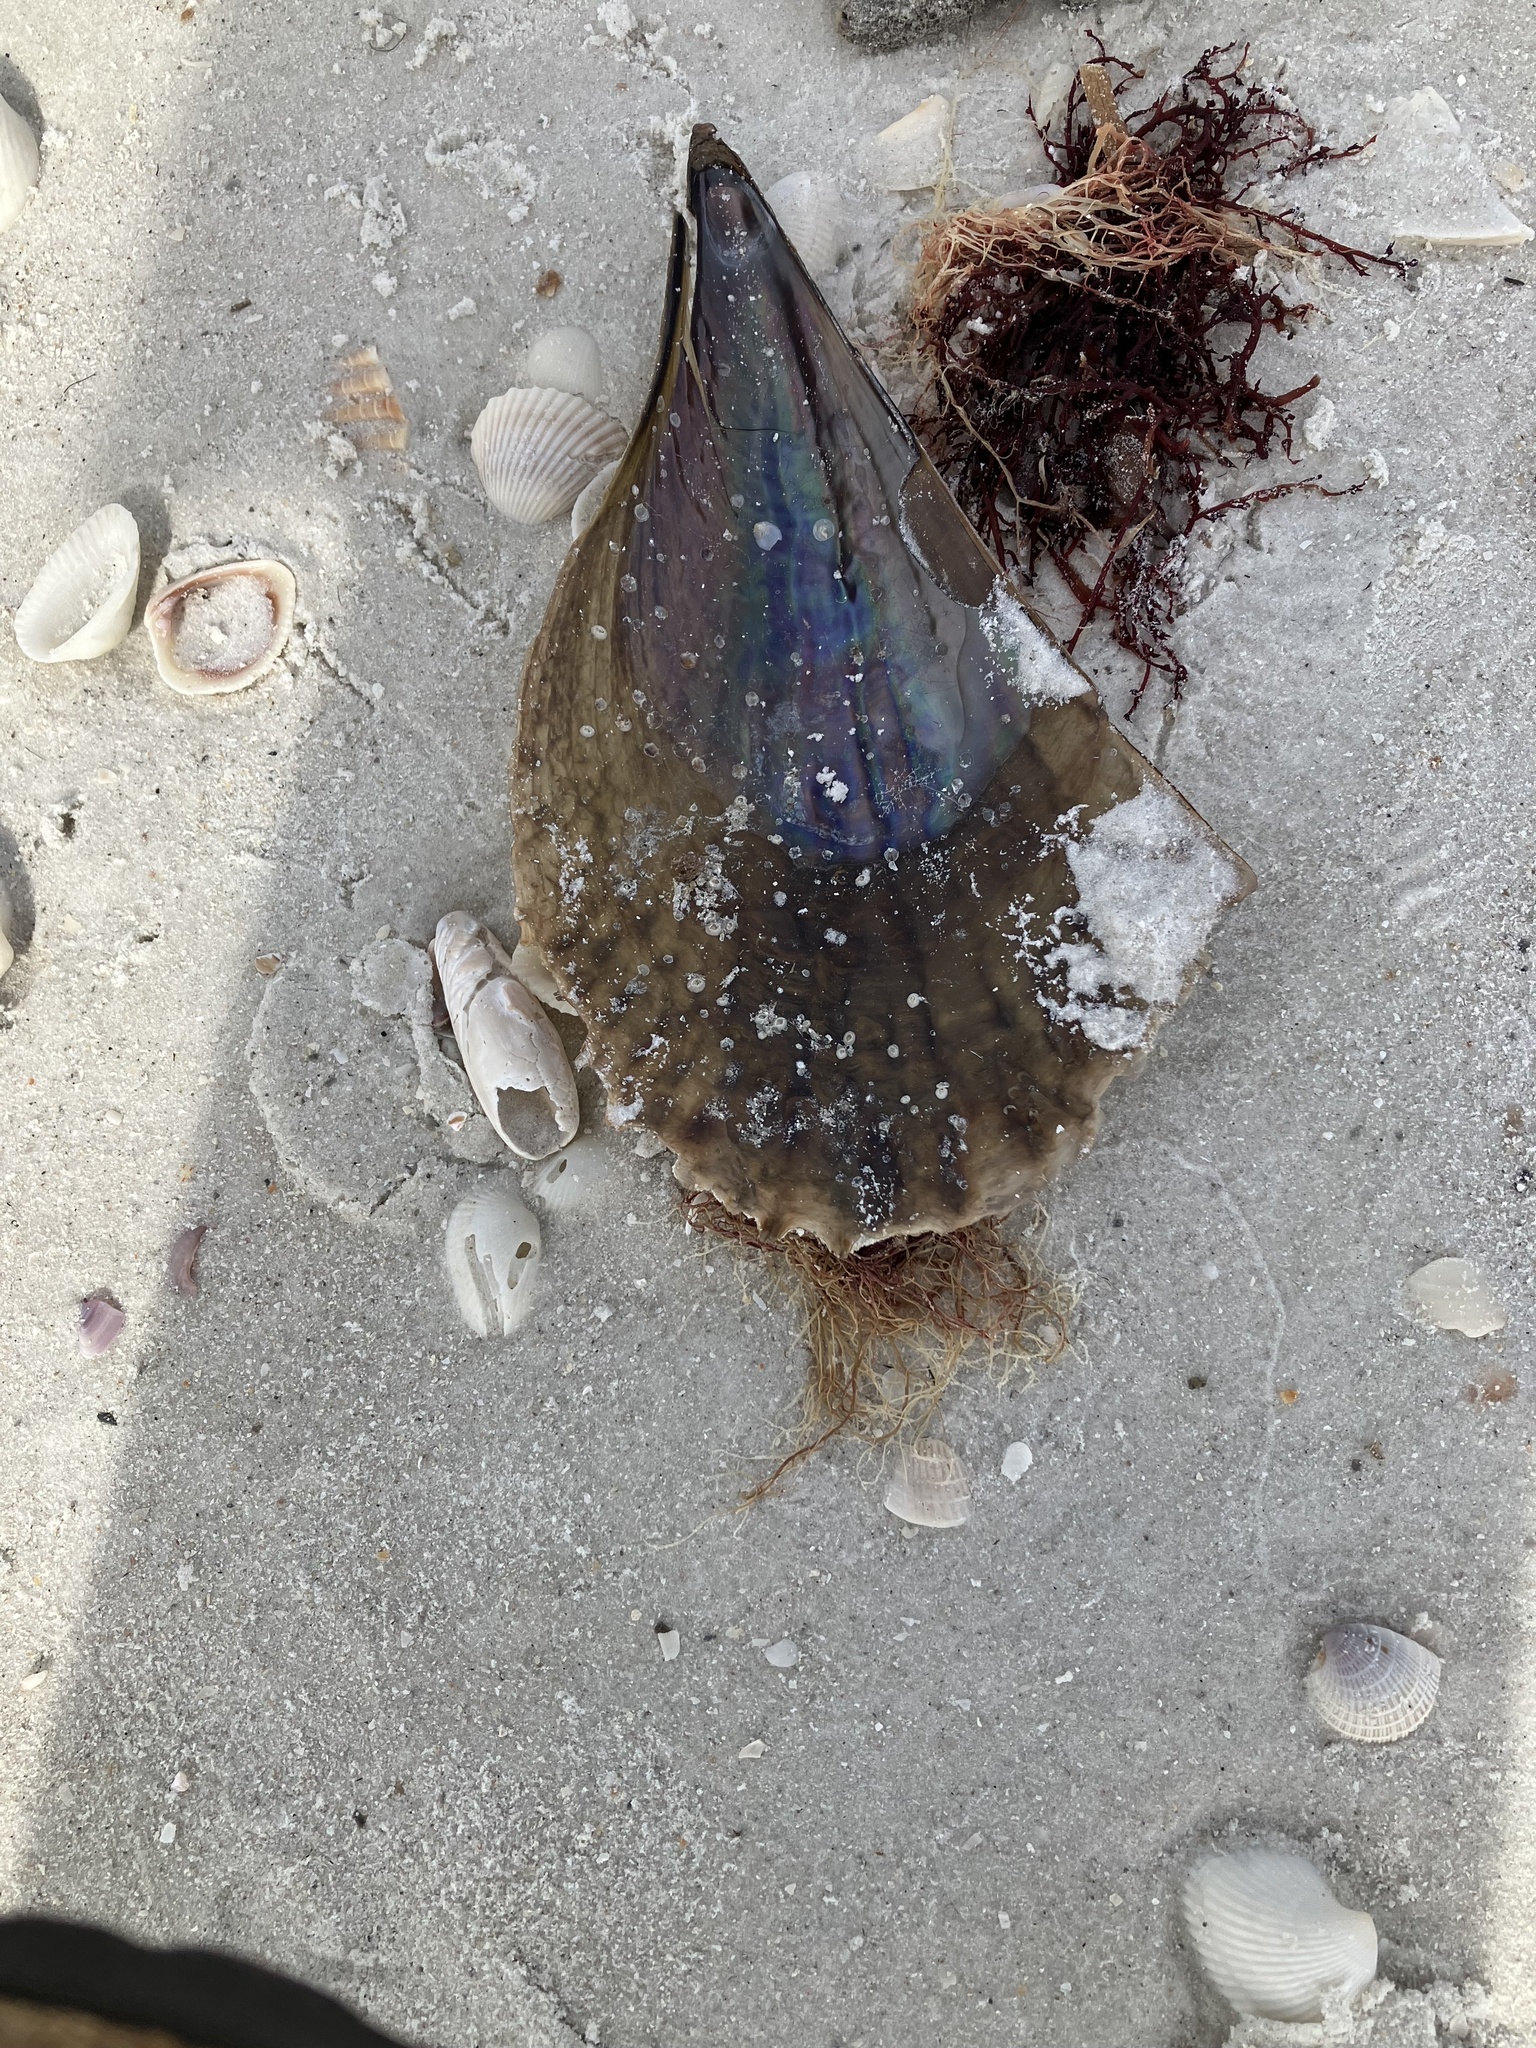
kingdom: Animalia
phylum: Mollusca
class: Bivalvia
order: Ostreida
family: Pinnidae
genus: Atrina
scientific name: Atrina rigida
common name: Stiff penshell
